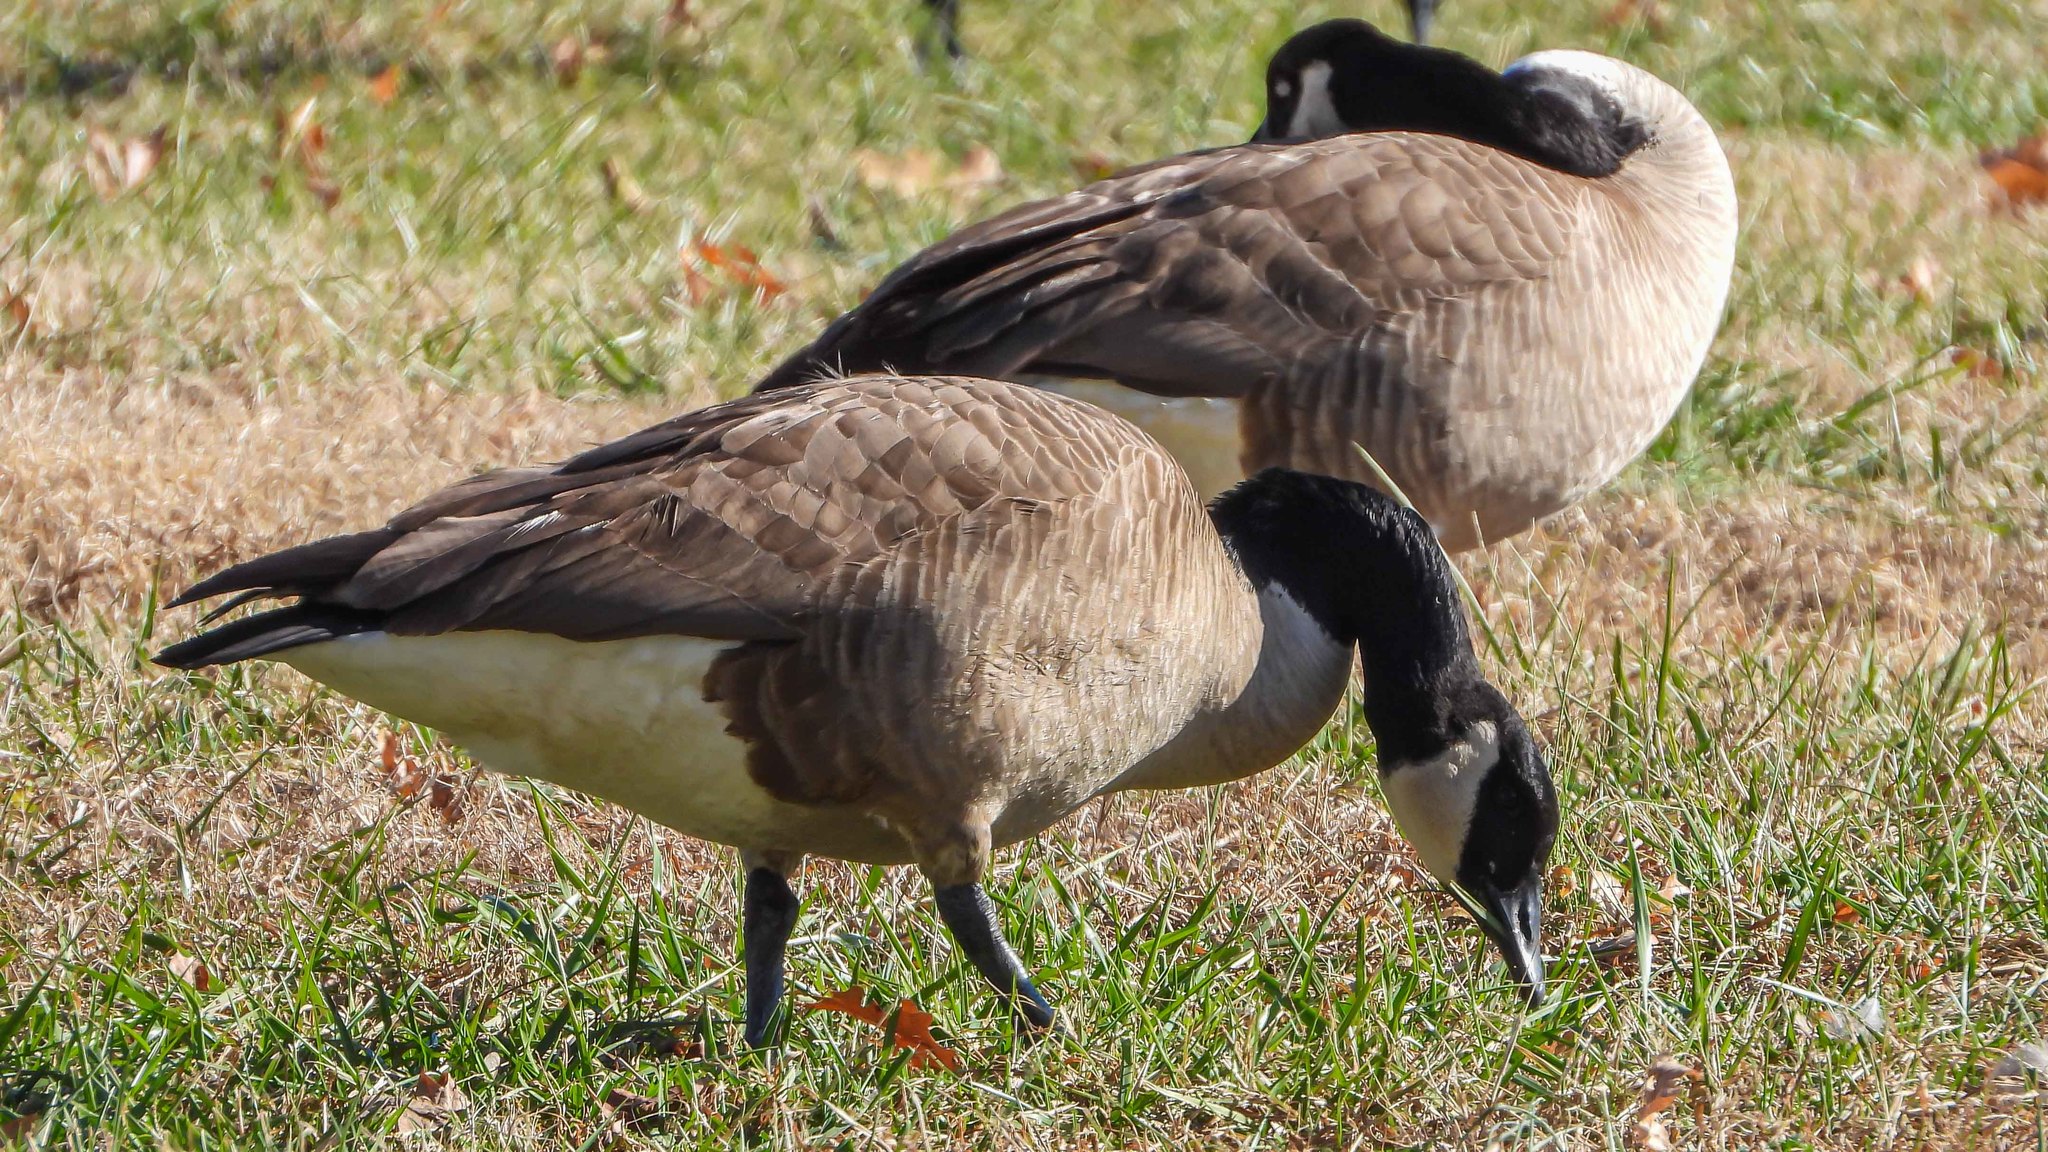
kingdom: Animalia
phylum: Chordata
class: Aves
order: Anseriformes
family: Anatidae
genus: Branta
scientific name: Branta hutchinsii
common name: Cackling goose
